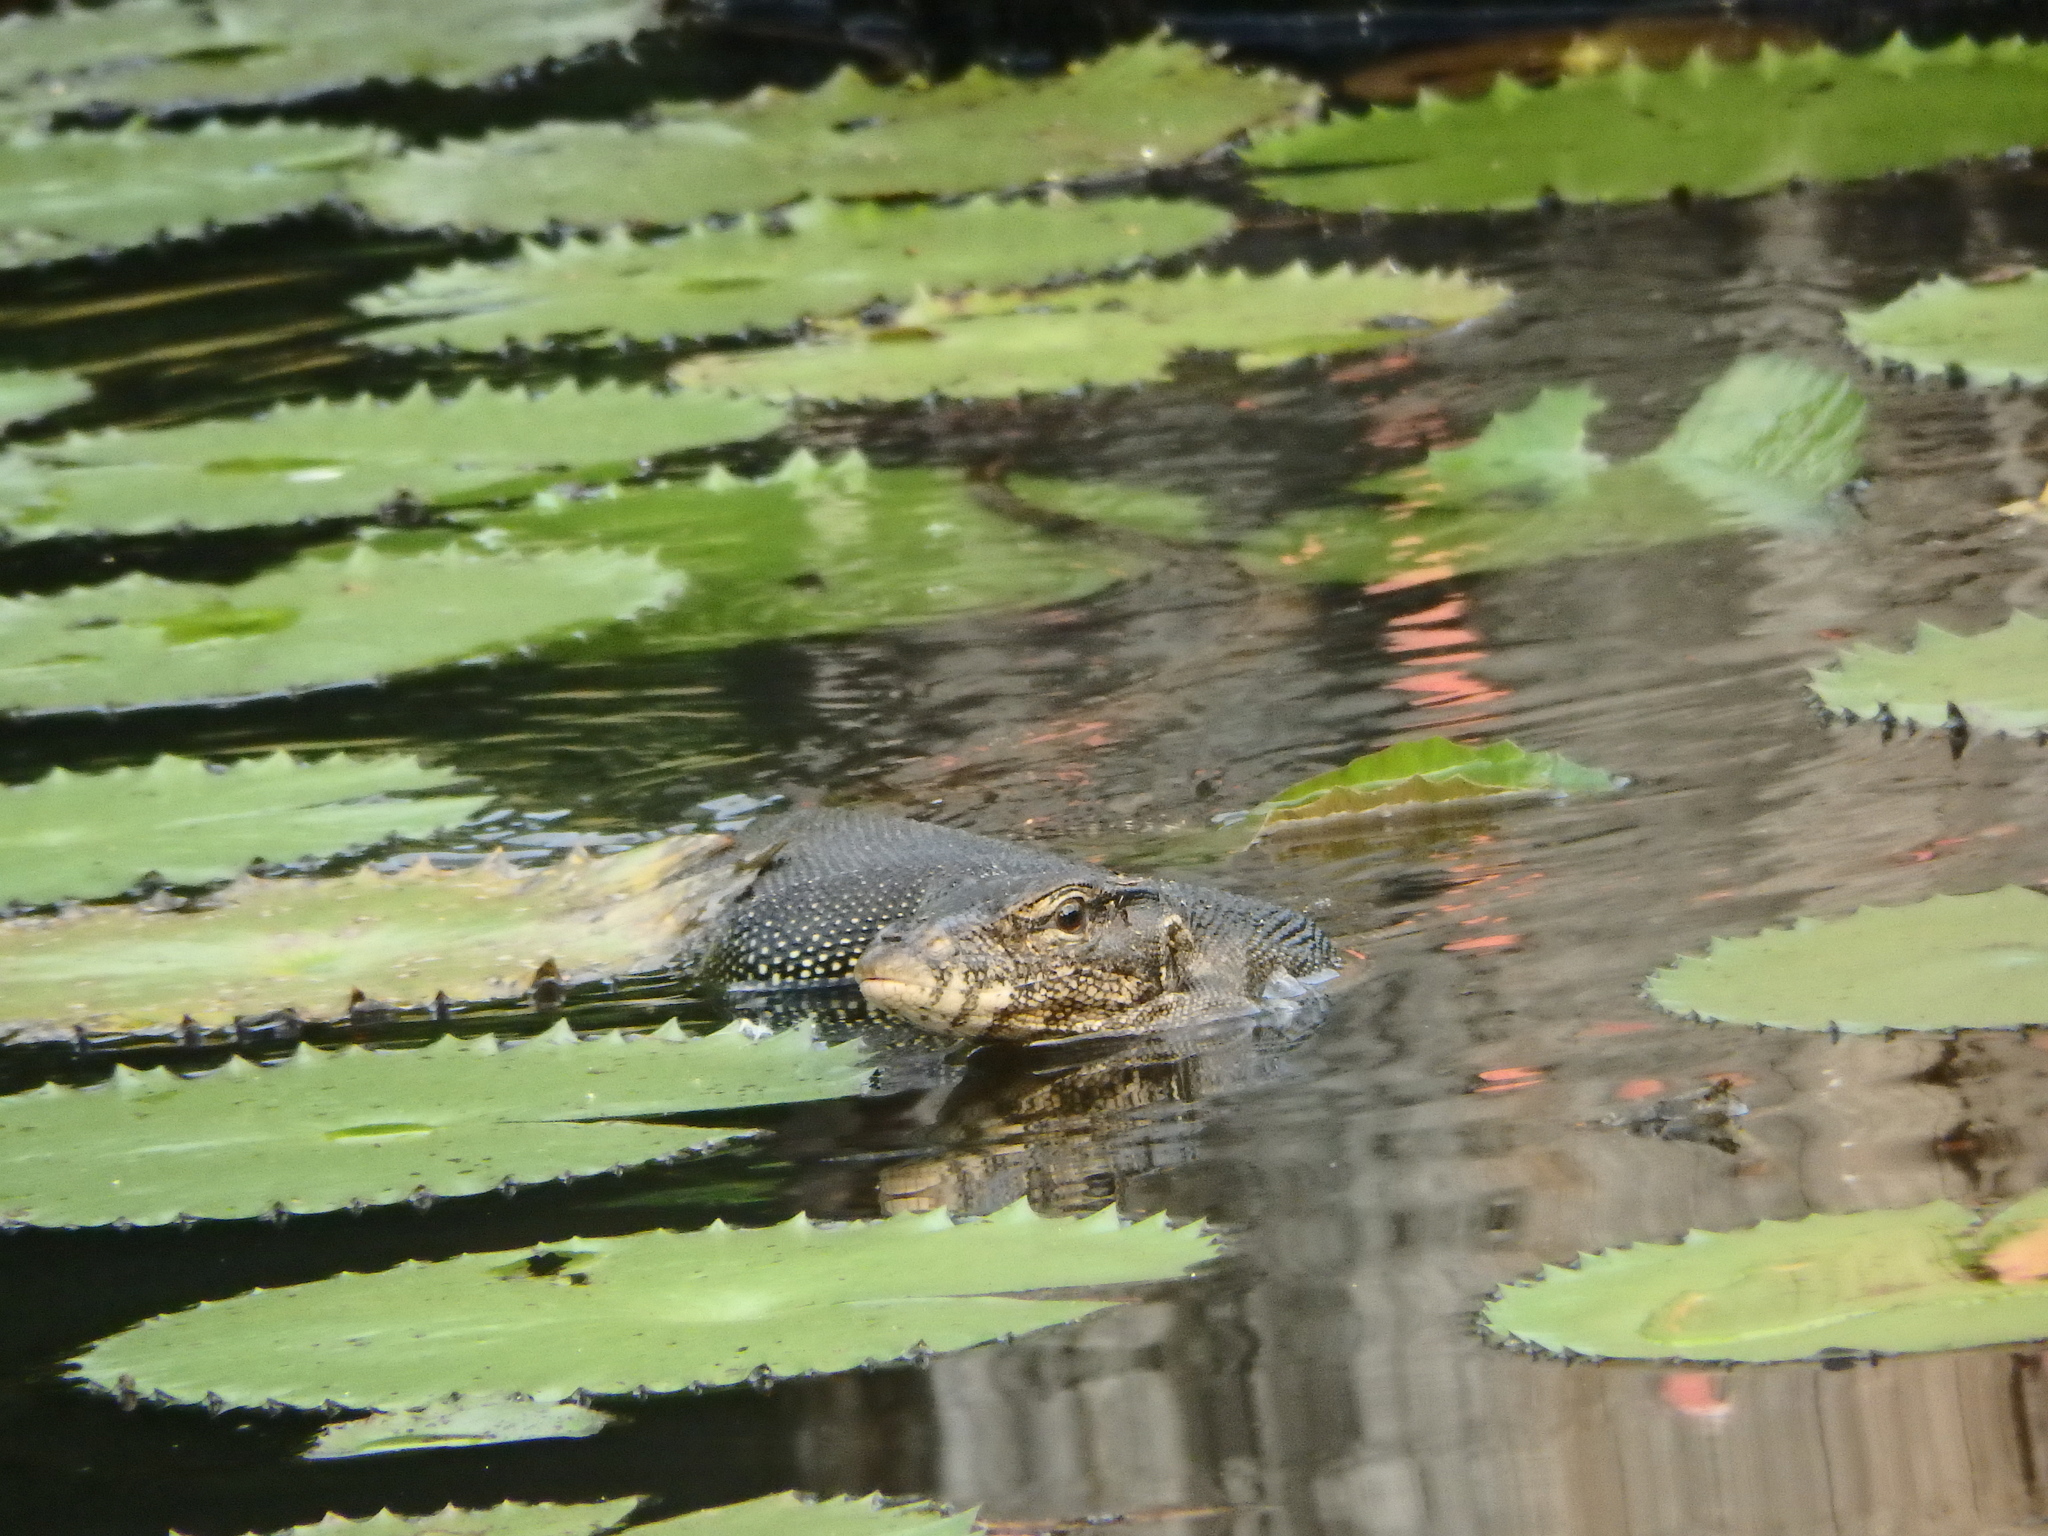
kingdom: Animalia
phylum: Chordata
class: Squamata
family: Varanidae
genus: Varanus
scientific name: Varanus salvator
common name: Common water monitor
